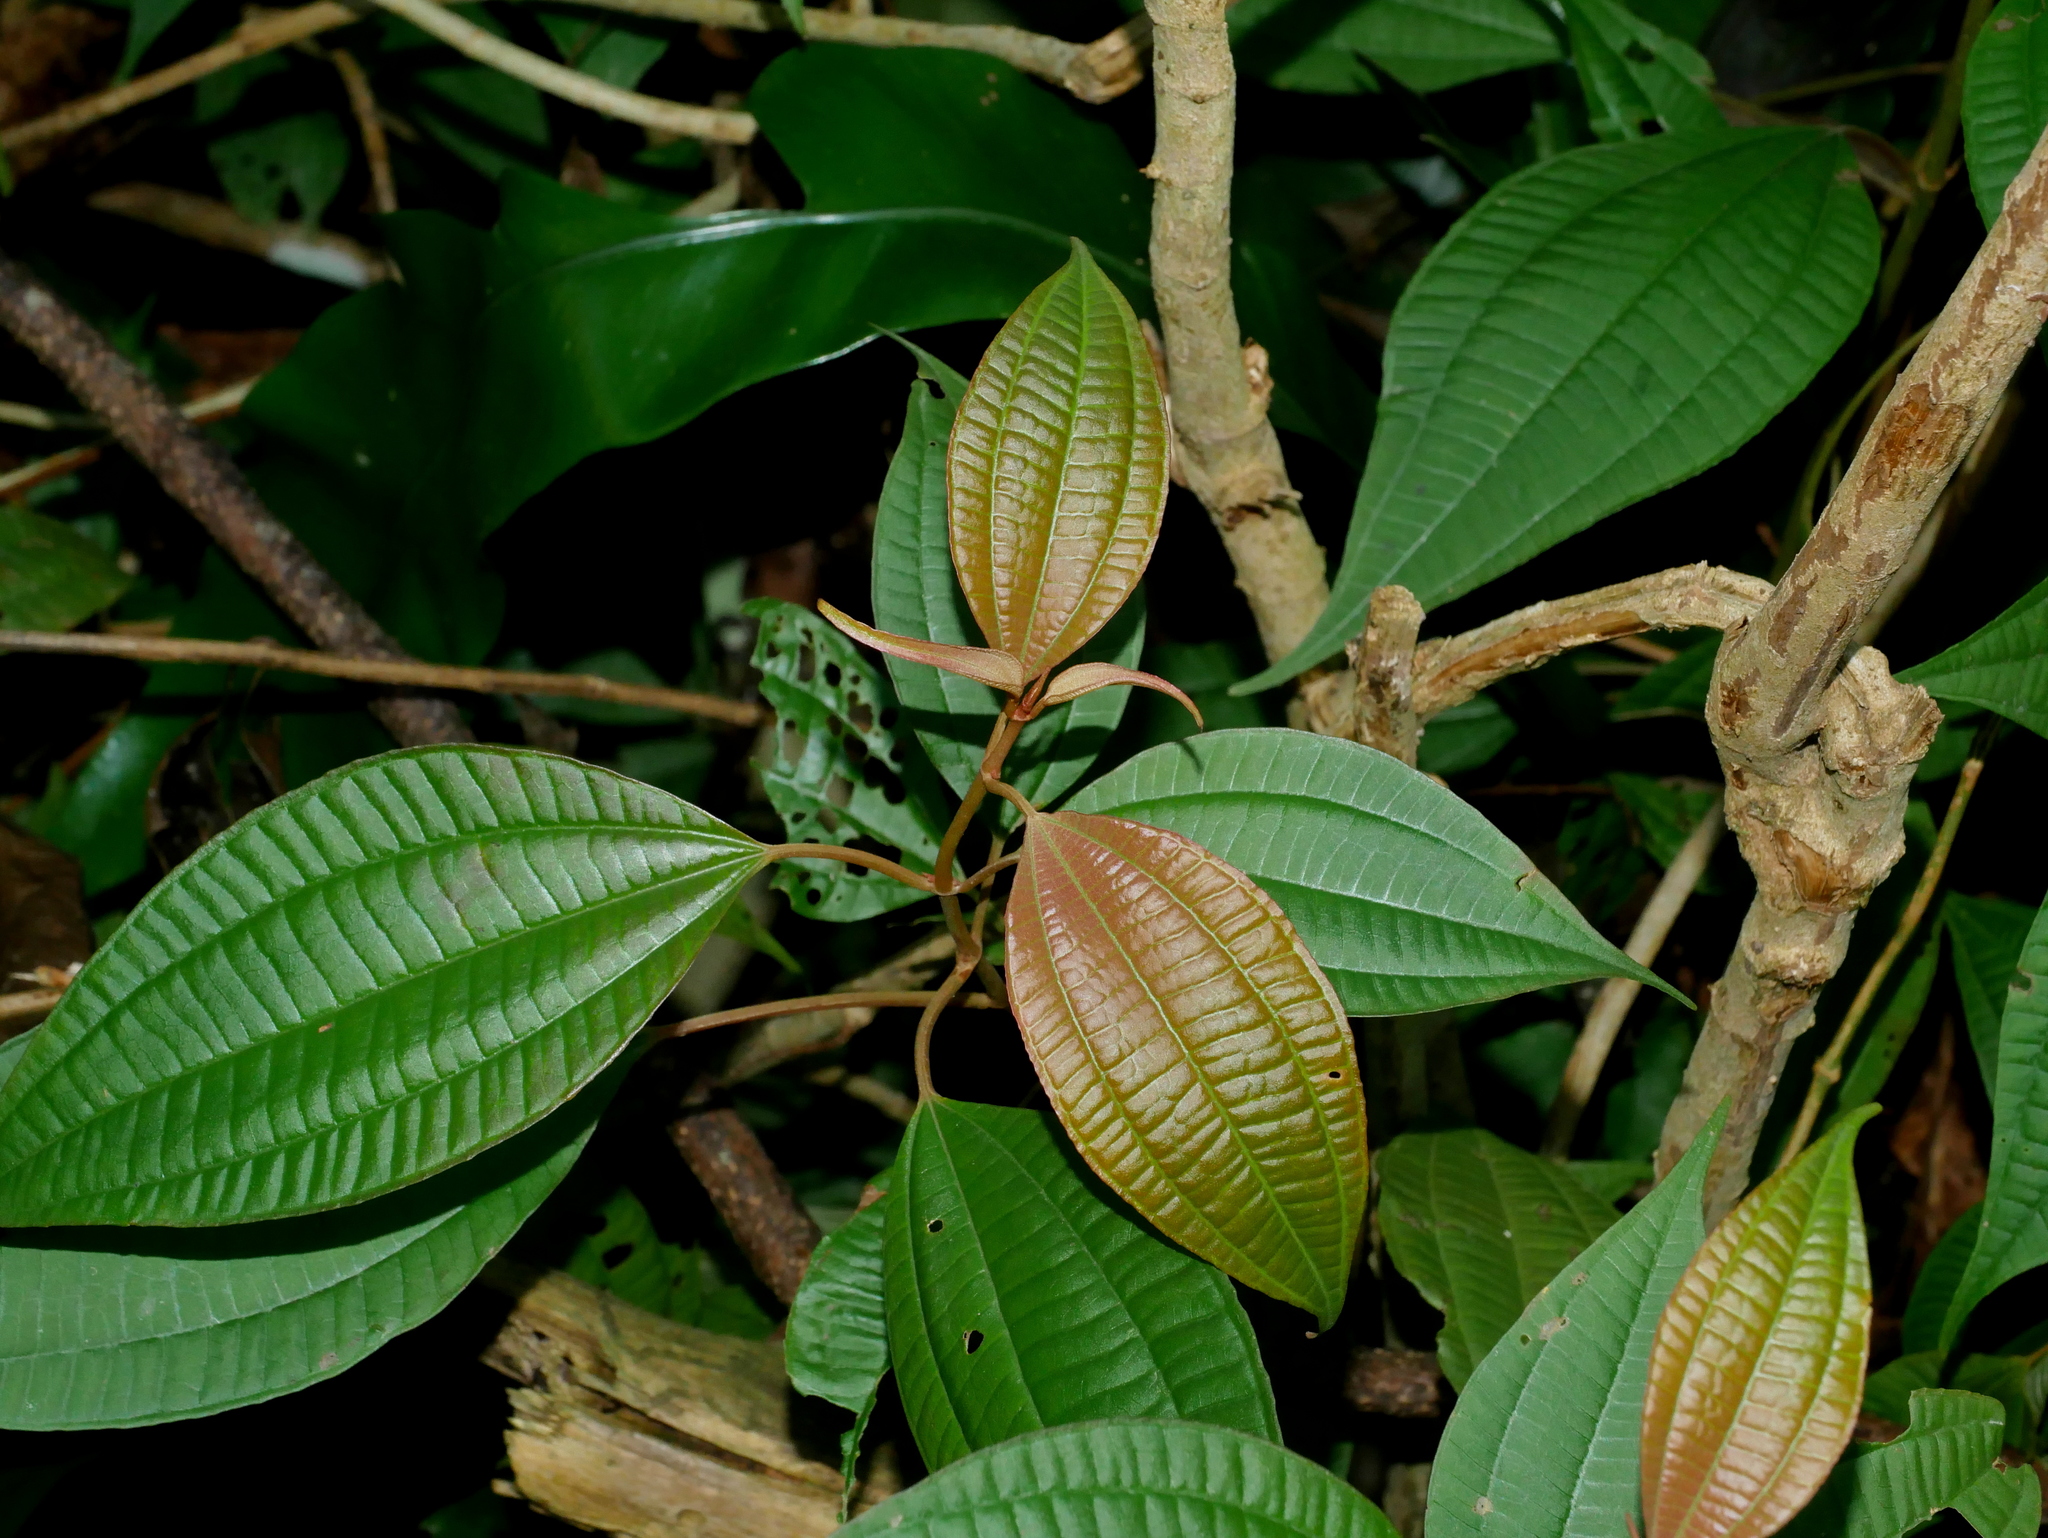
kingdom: Plantae
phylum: Tracheophyta
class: Magnoliopsida
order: Myrtales
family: Melastomataceae
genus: Blastus
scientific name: Blastus cochinchinensis
